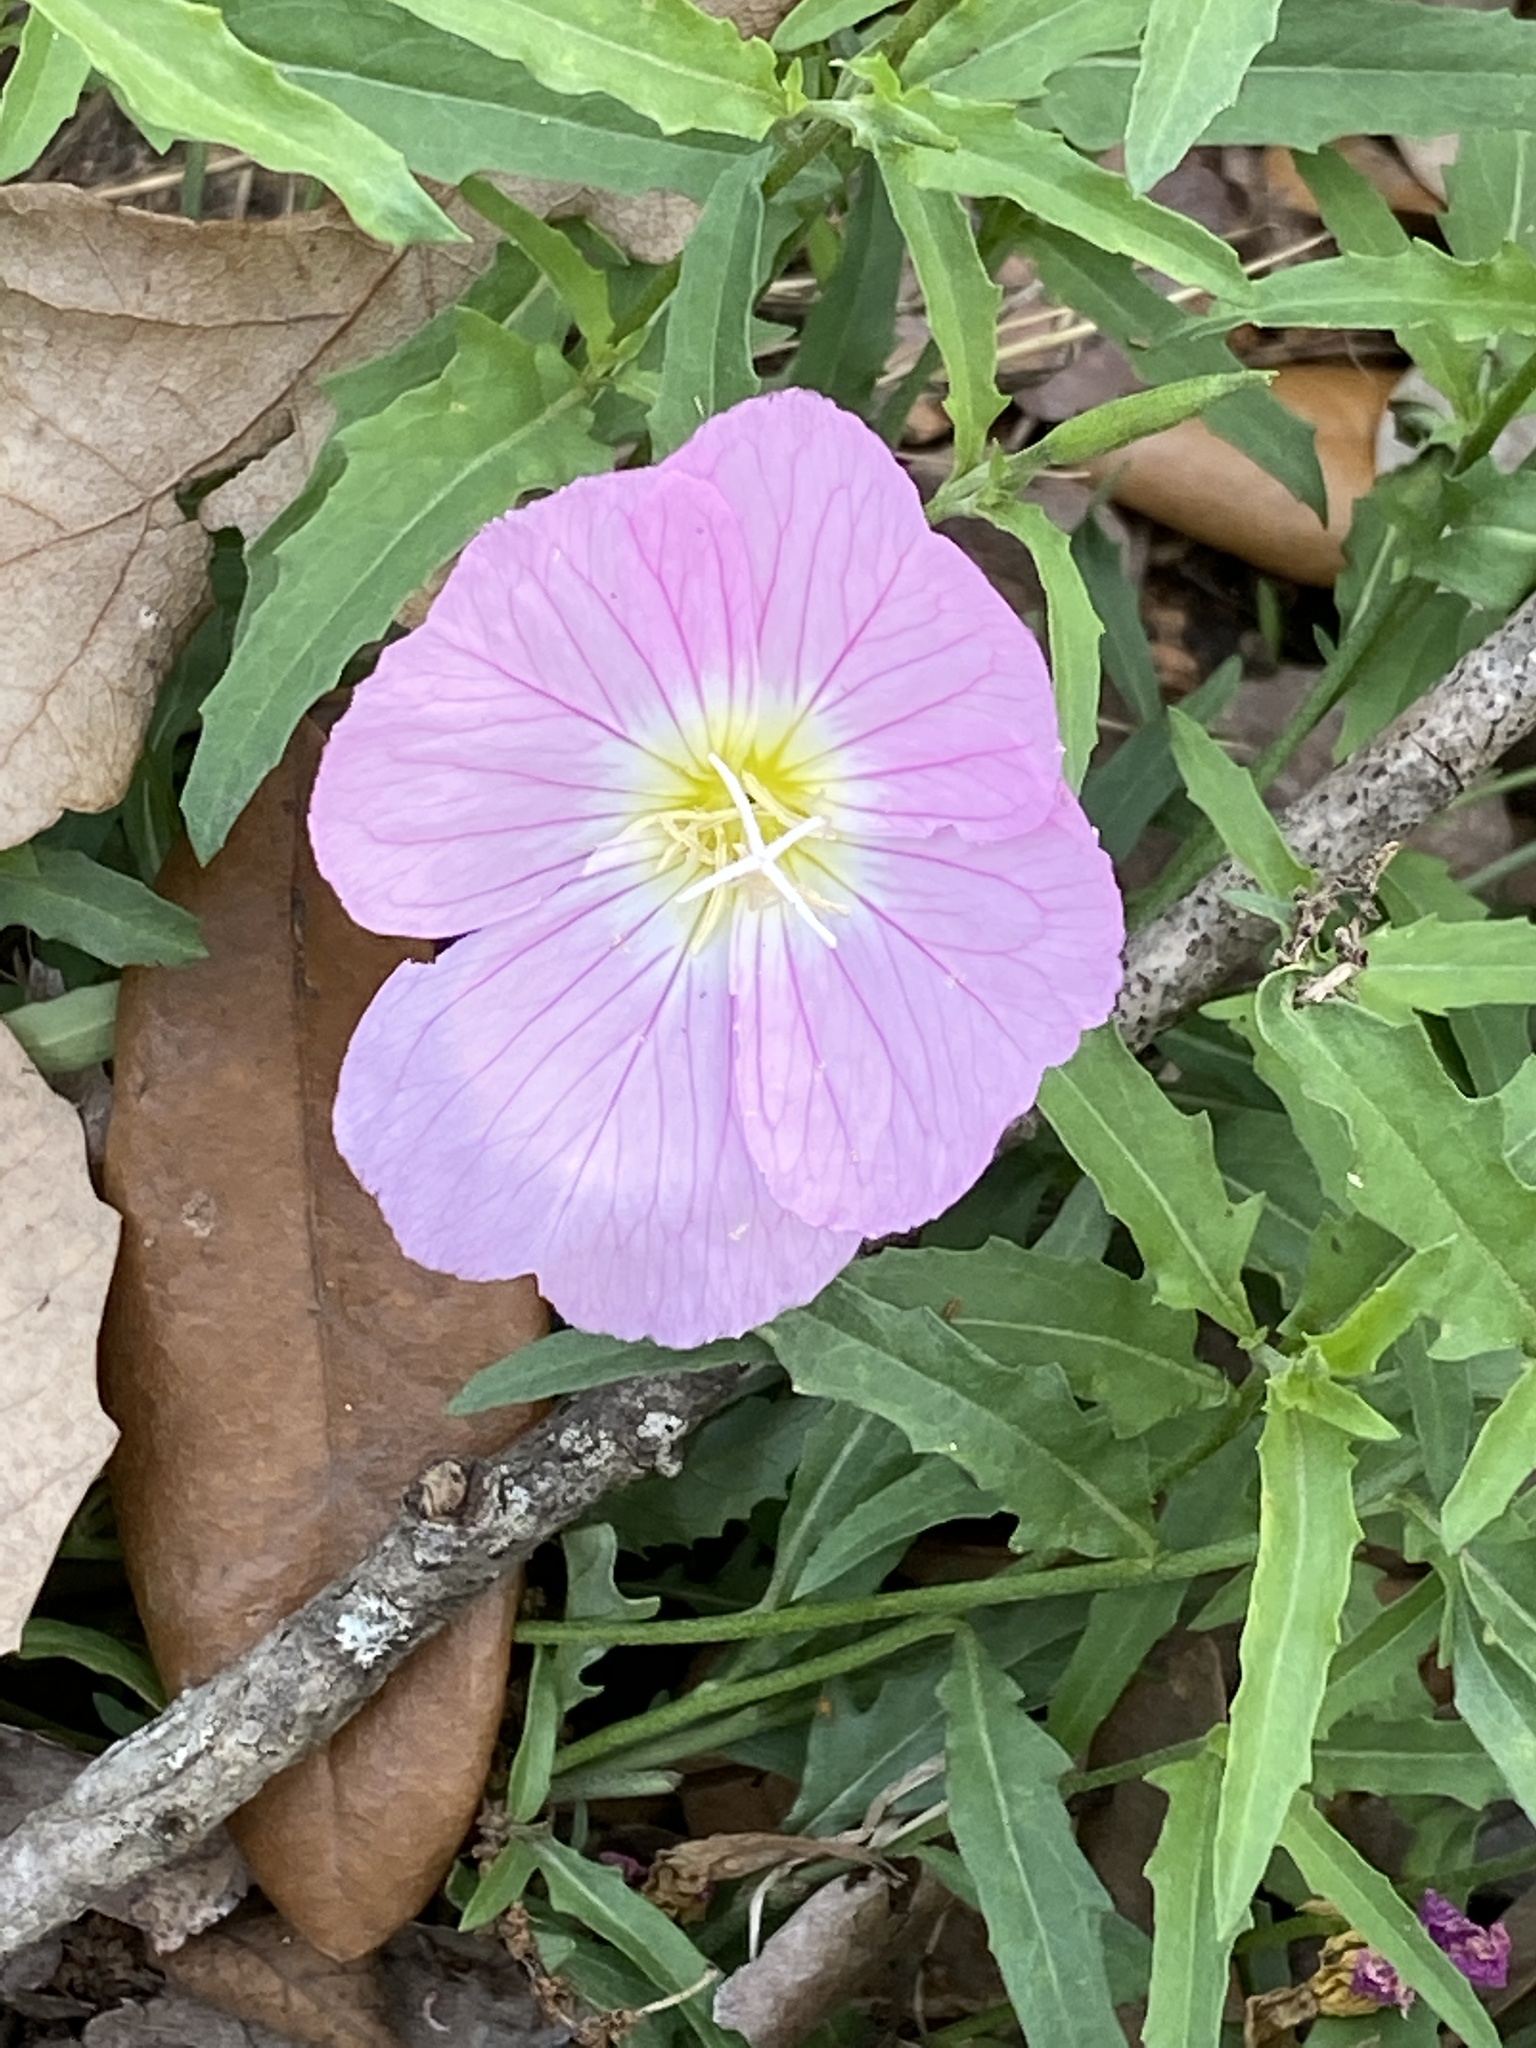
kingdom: Plantae
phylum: Tracheophyta
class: Magnoliopsida
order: Myrtales
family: Onagraceae
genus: Oenothera
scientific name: Oenothera speciosa
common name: White evening-primrose
